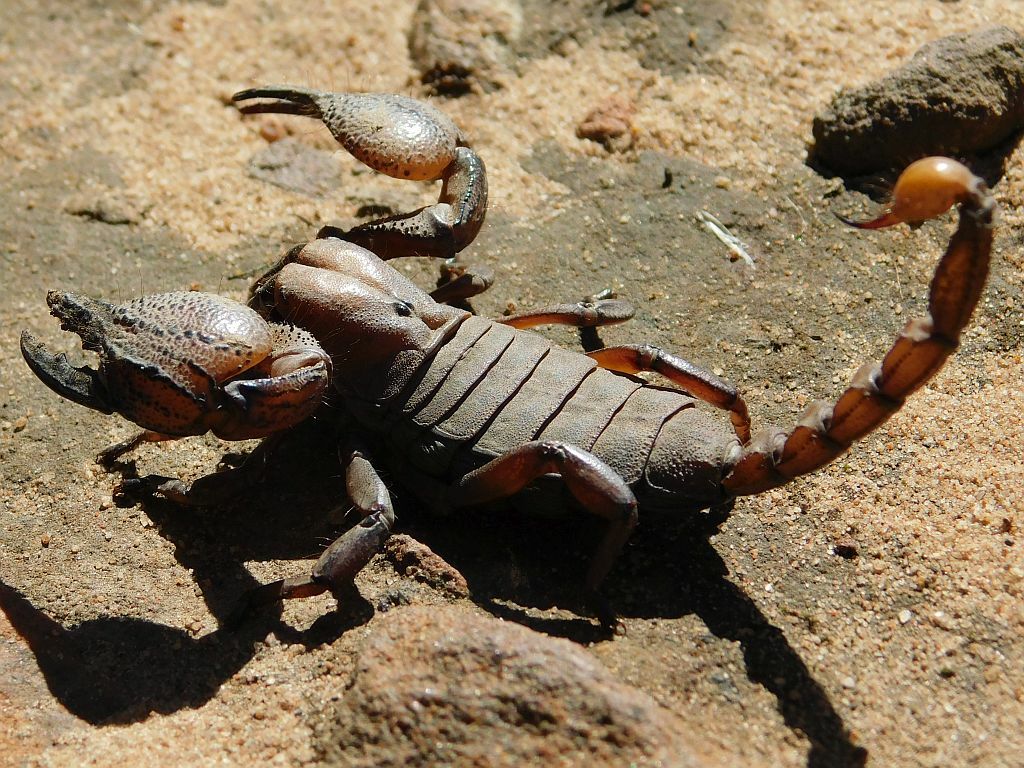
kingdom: Animalia
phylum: Arthropoda
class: Arachnida
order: Scorpiones
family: Scorpionidae
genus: Opistophthalmus
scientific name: Opistophthalmus macer
